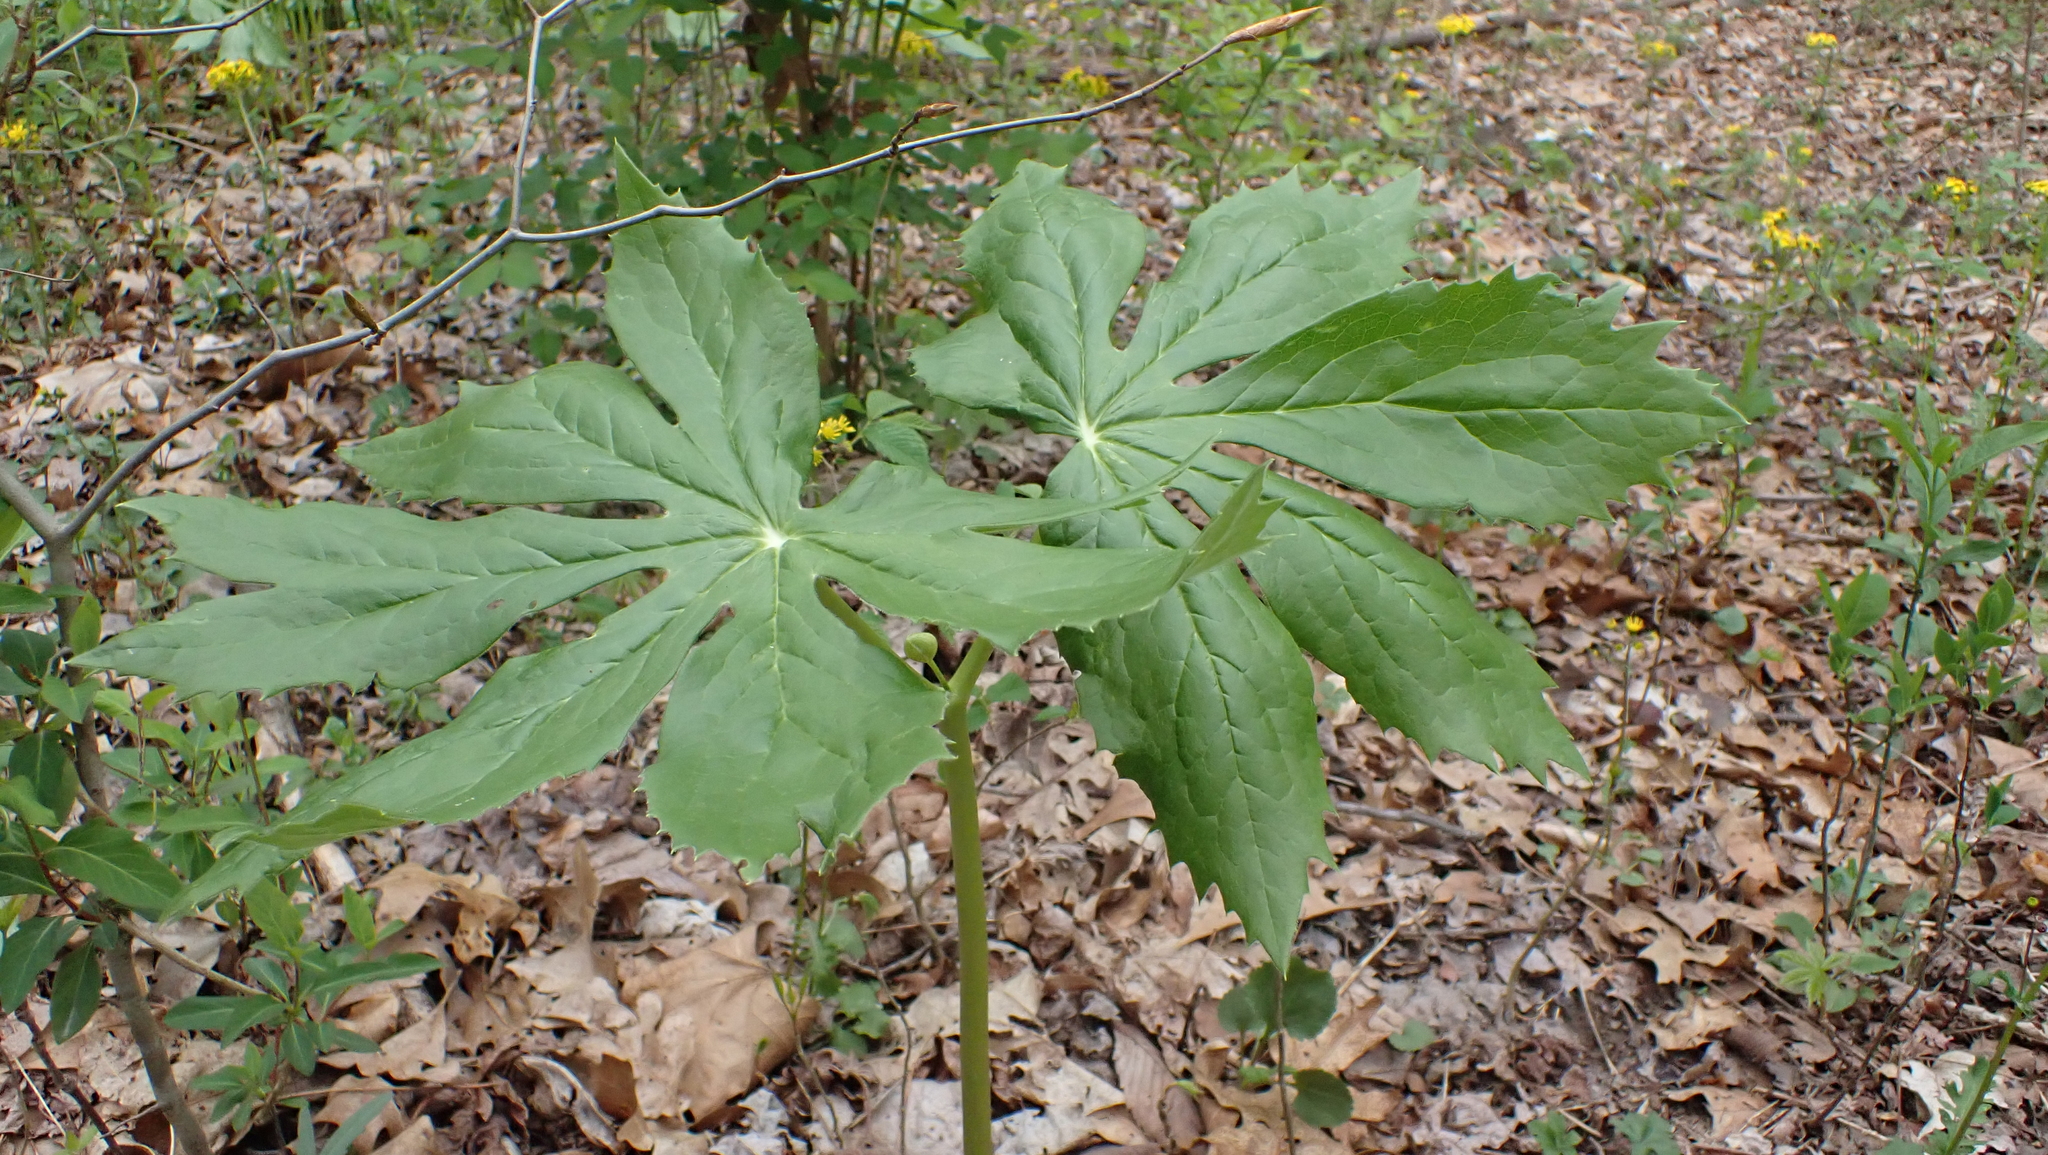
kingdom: Plantae
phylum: Tracheophyta
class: Magnoliopsida
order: Ranunculales
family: Berberidaceae
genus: Podophyllum
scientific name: Podophyllum peltatum
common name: Wild mandrake
